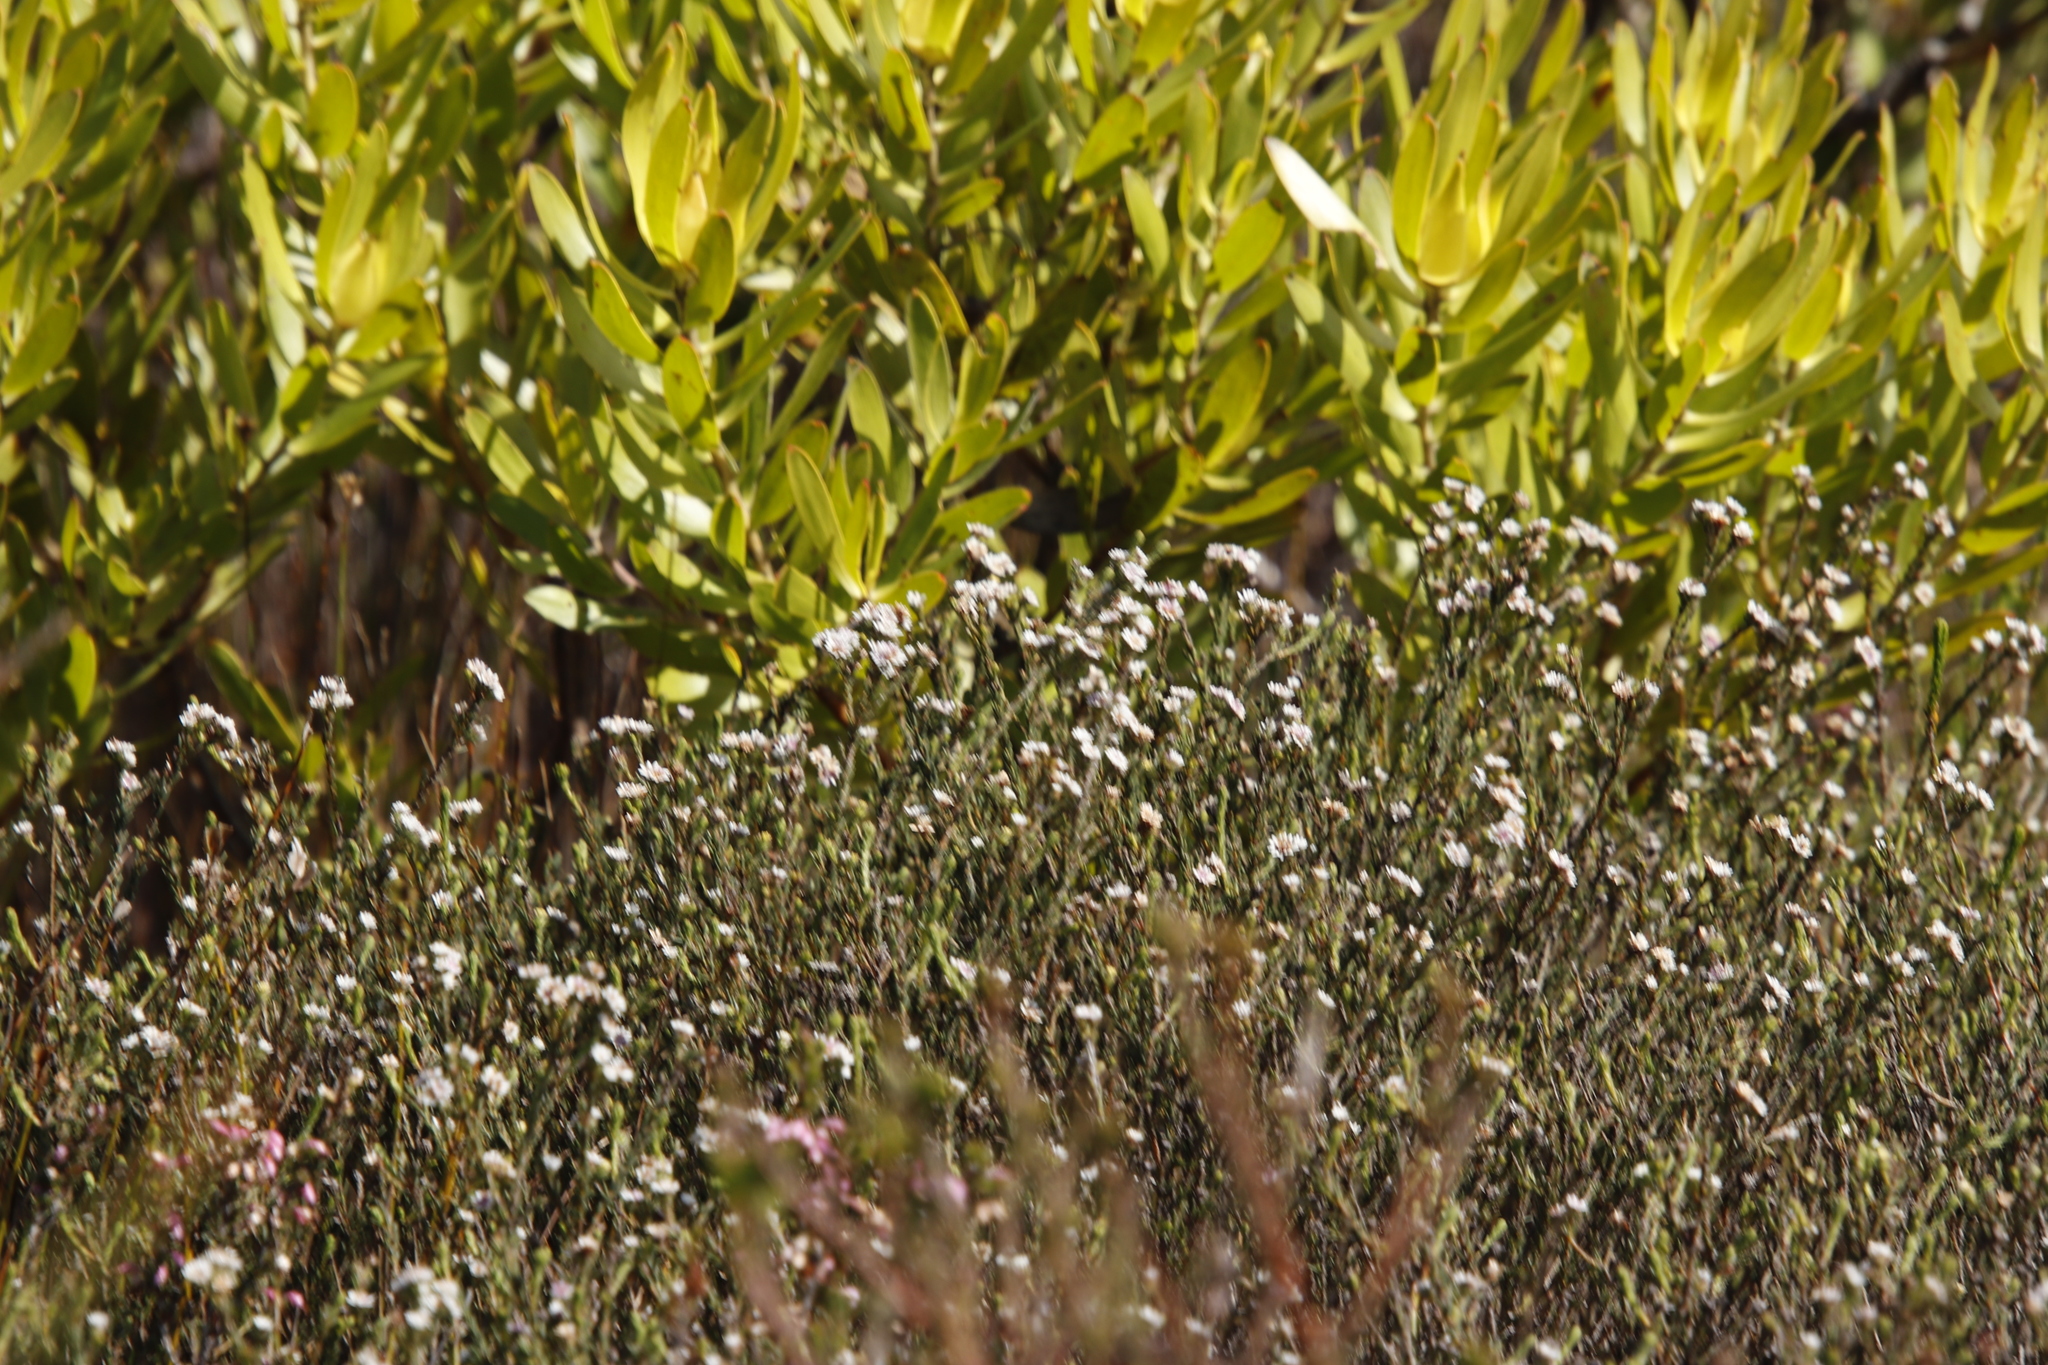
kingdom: Plantae
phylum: Tracheophyta
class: Magnoliopsida
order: Proteales
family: Proteaceae
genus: Leucadendron
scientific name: Leucadendron laureolum
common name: Golden sunshinebush
